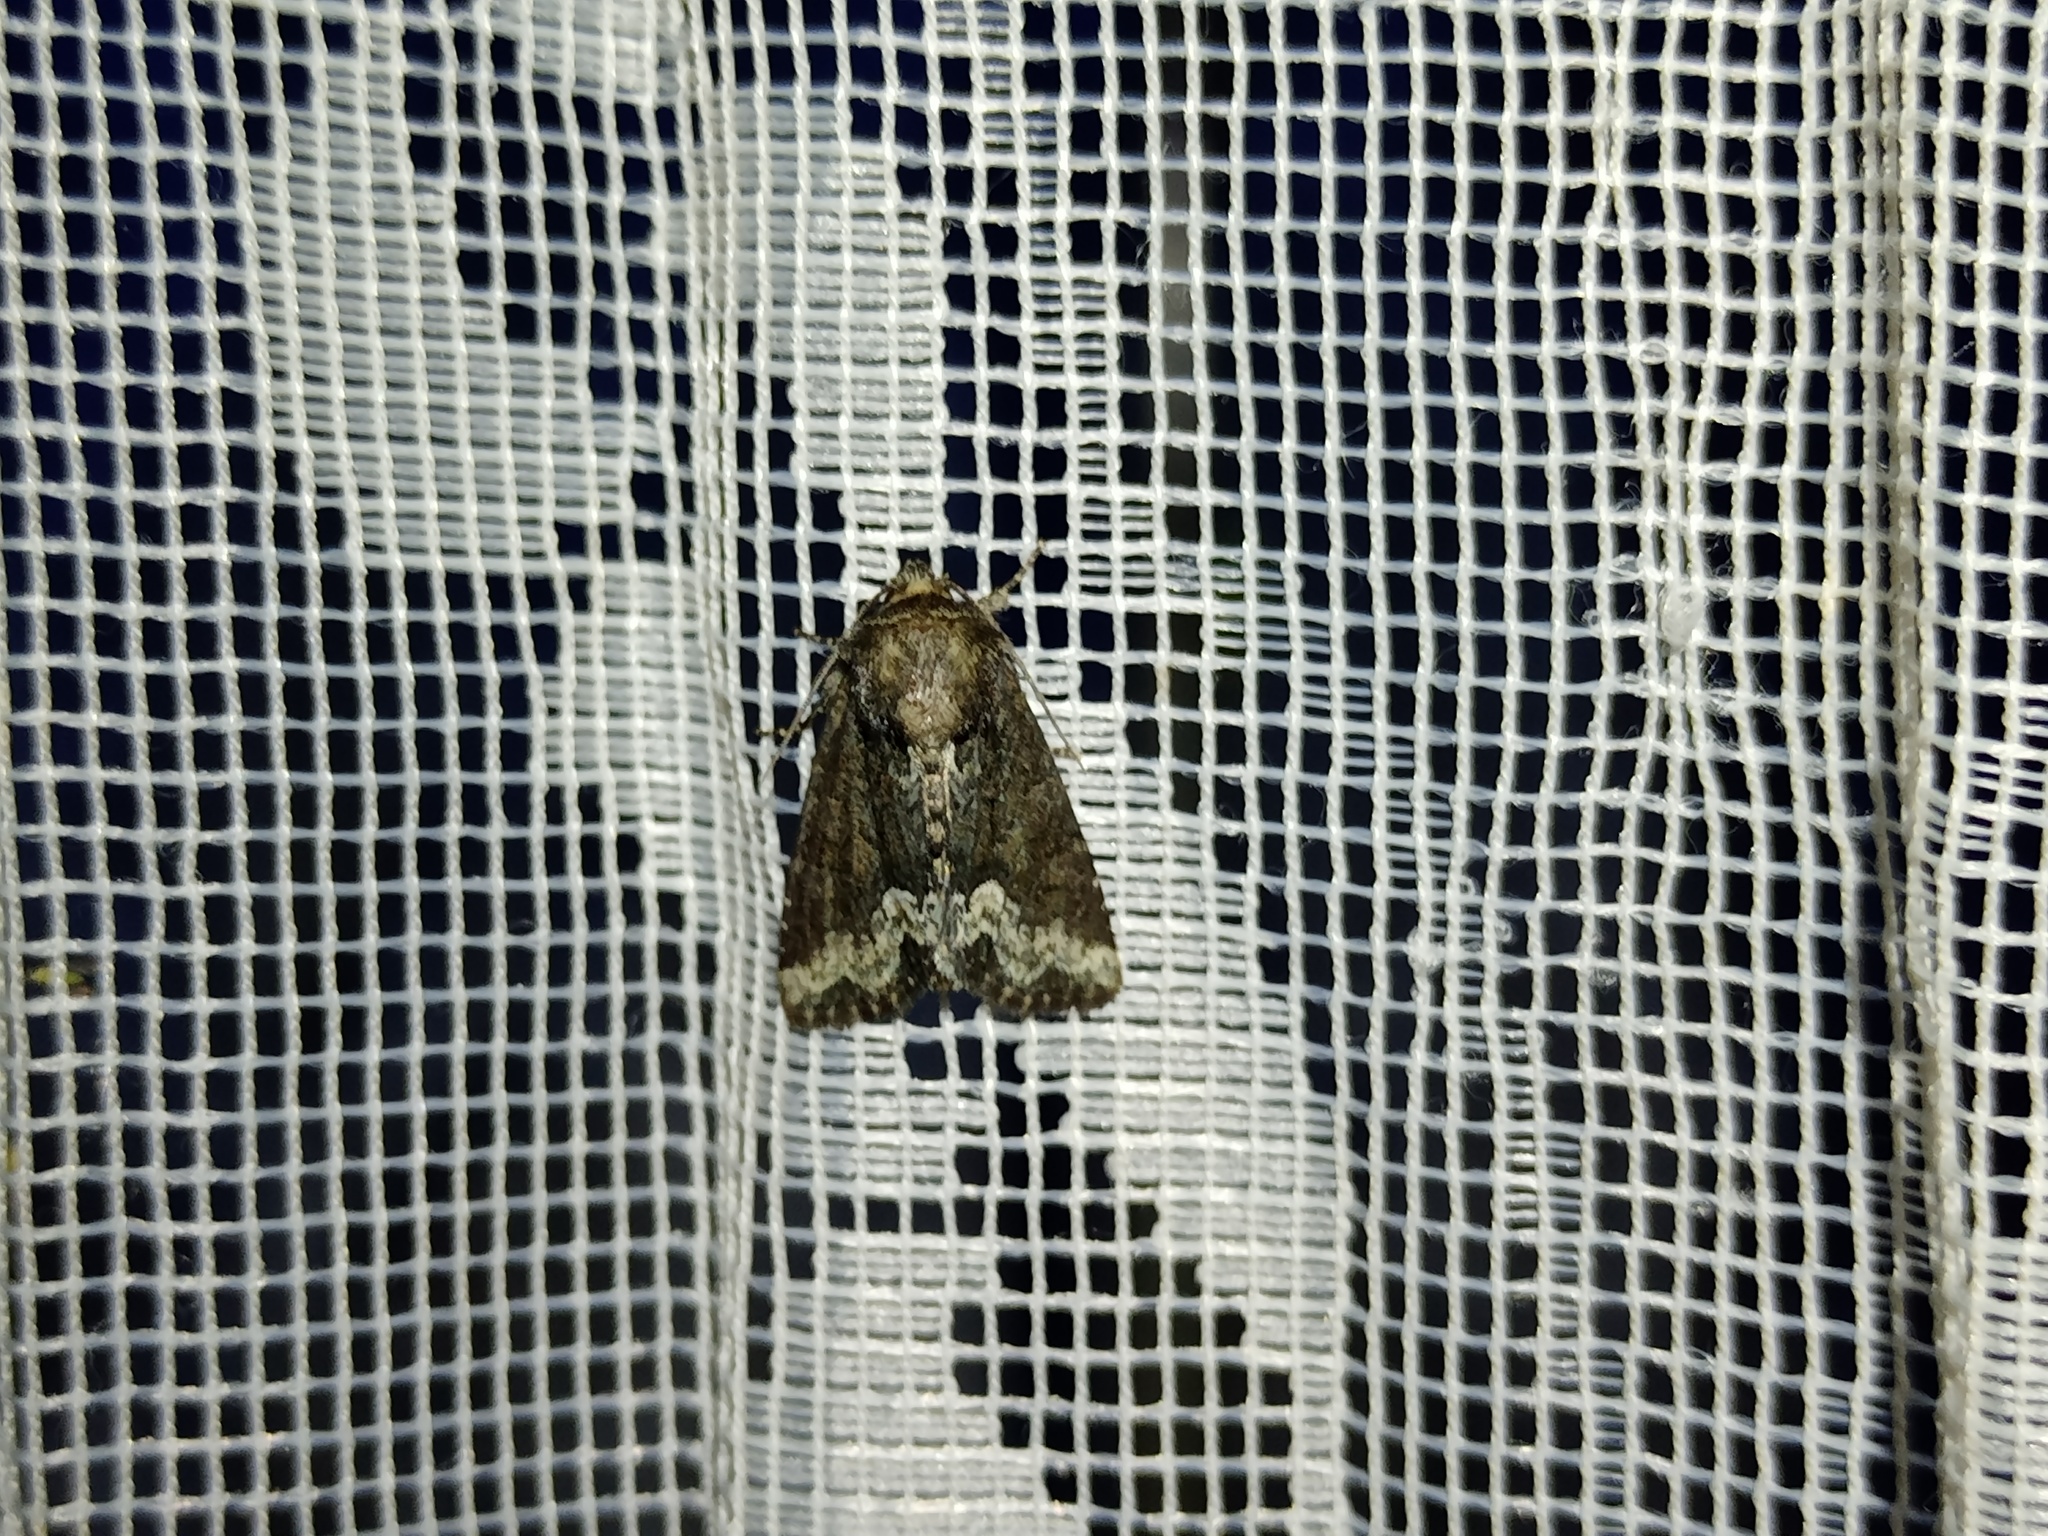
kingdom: Animalia
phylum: Arthropoda
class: Insecta
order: Lepidoptera
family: Noctuidae
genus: Oligia
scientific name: Oligia strigilis
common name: Marbled minor
